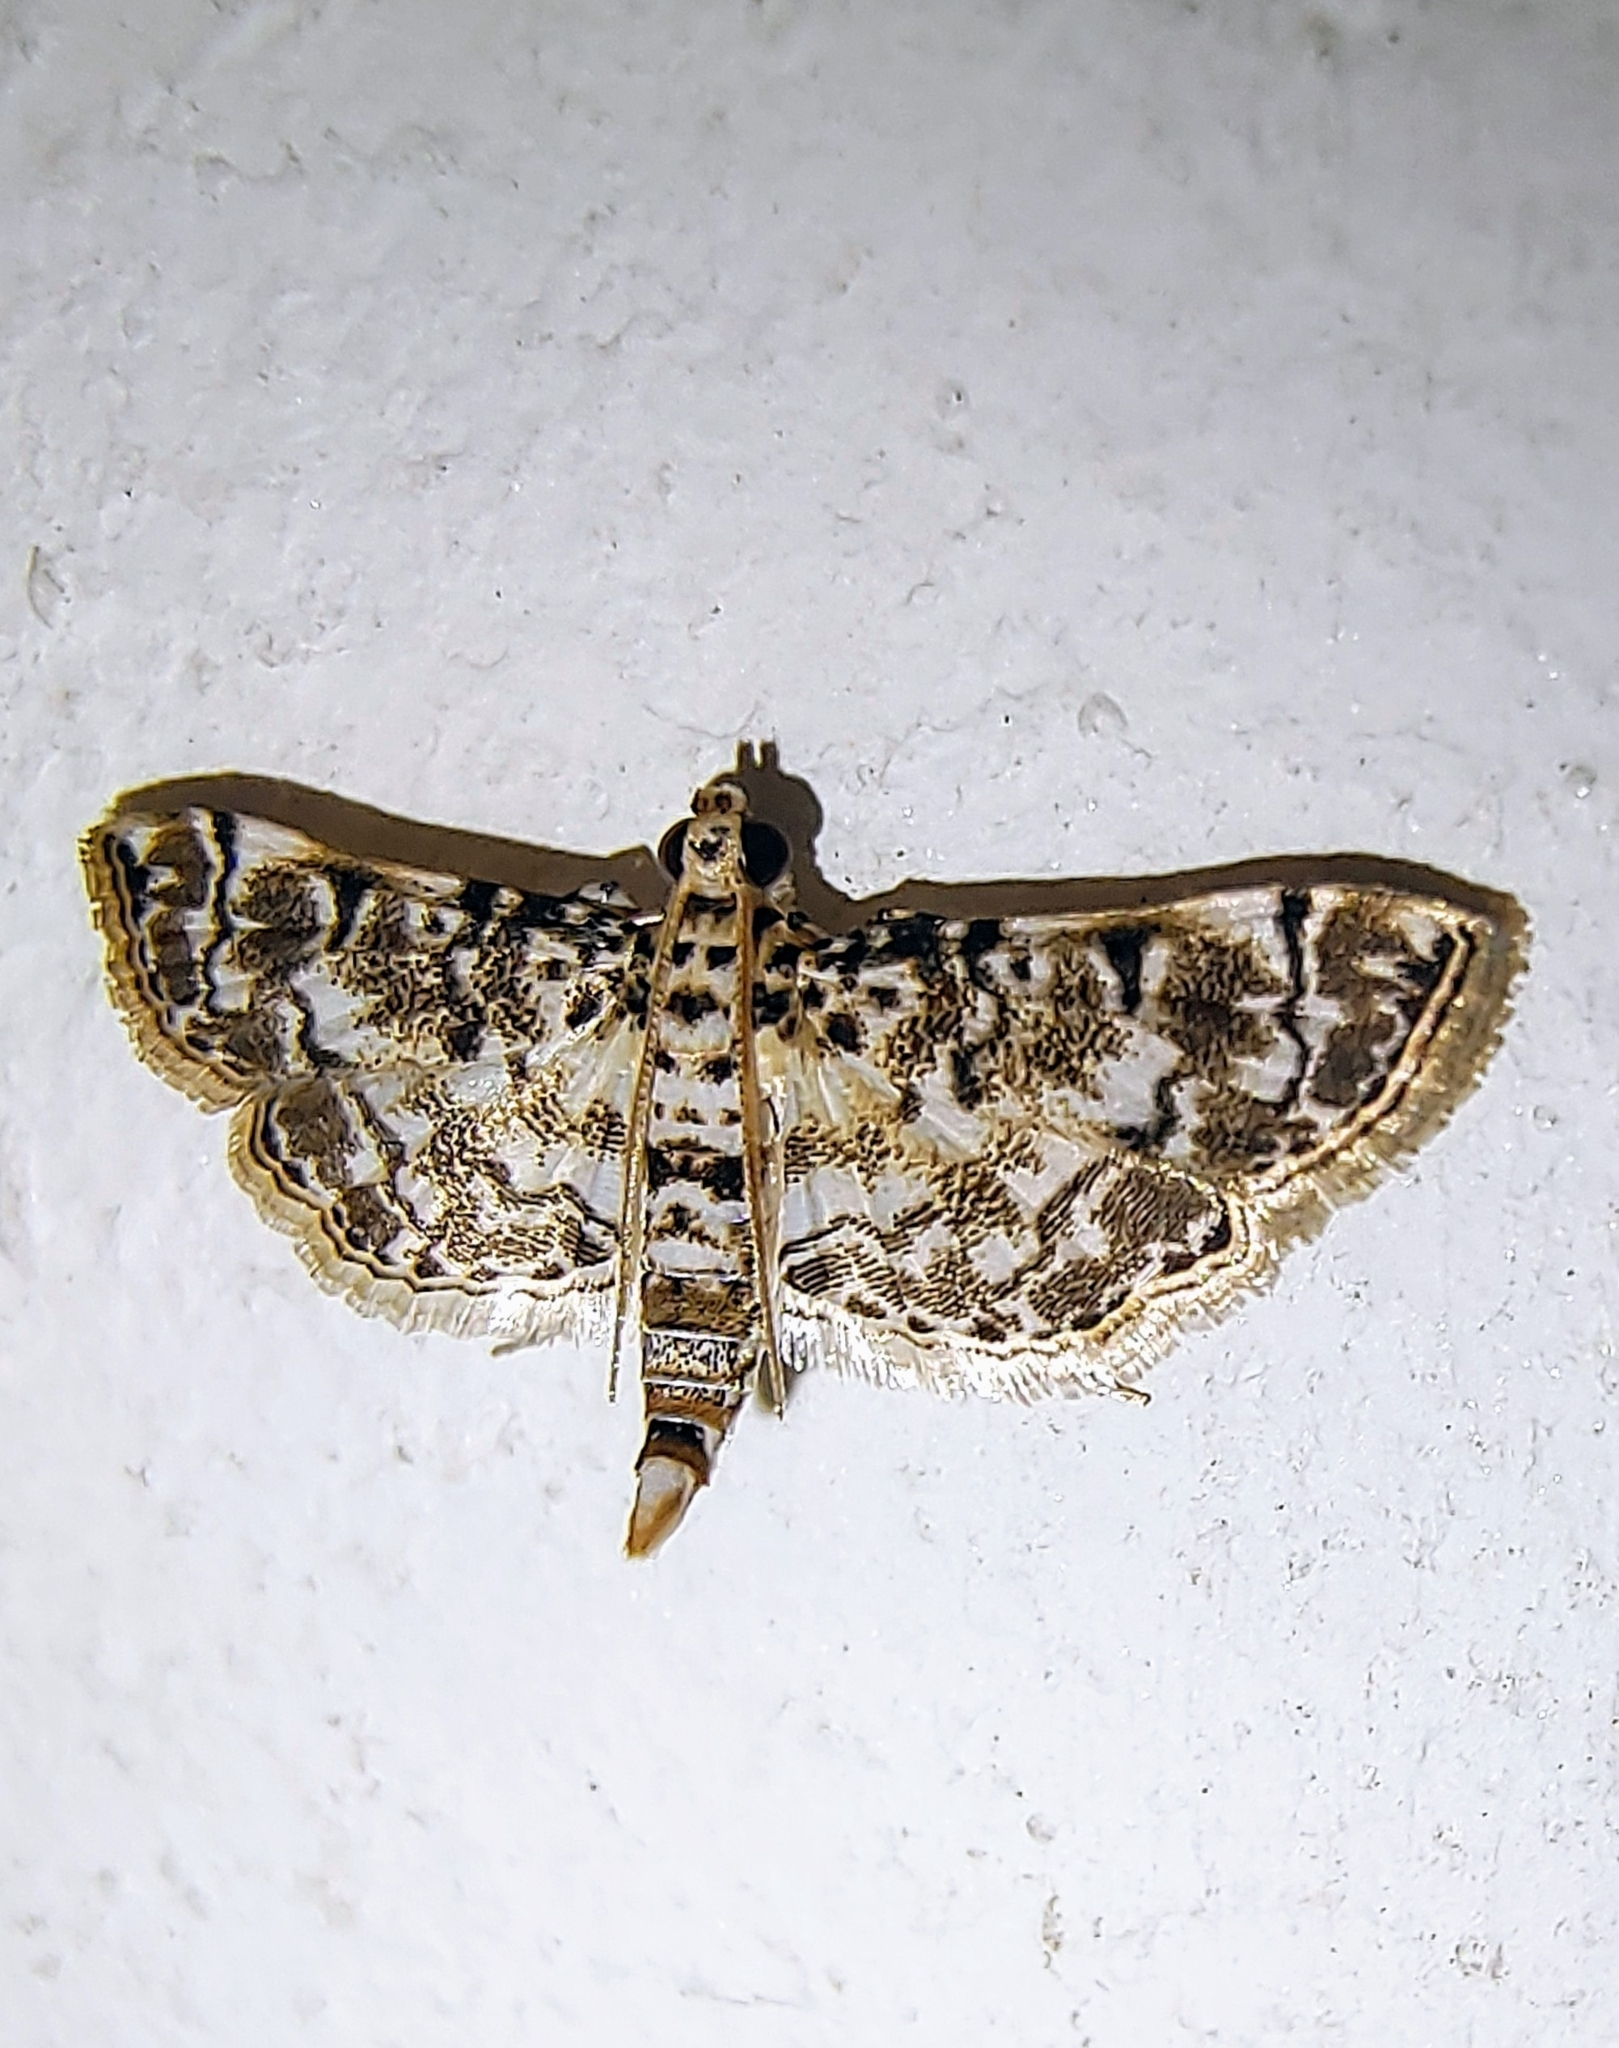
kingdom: Animalia
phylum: Arthropoda
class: Insecta
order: Lepidoptera
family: Crambidae
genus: Metoeca
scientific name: Metoeca foedalis
